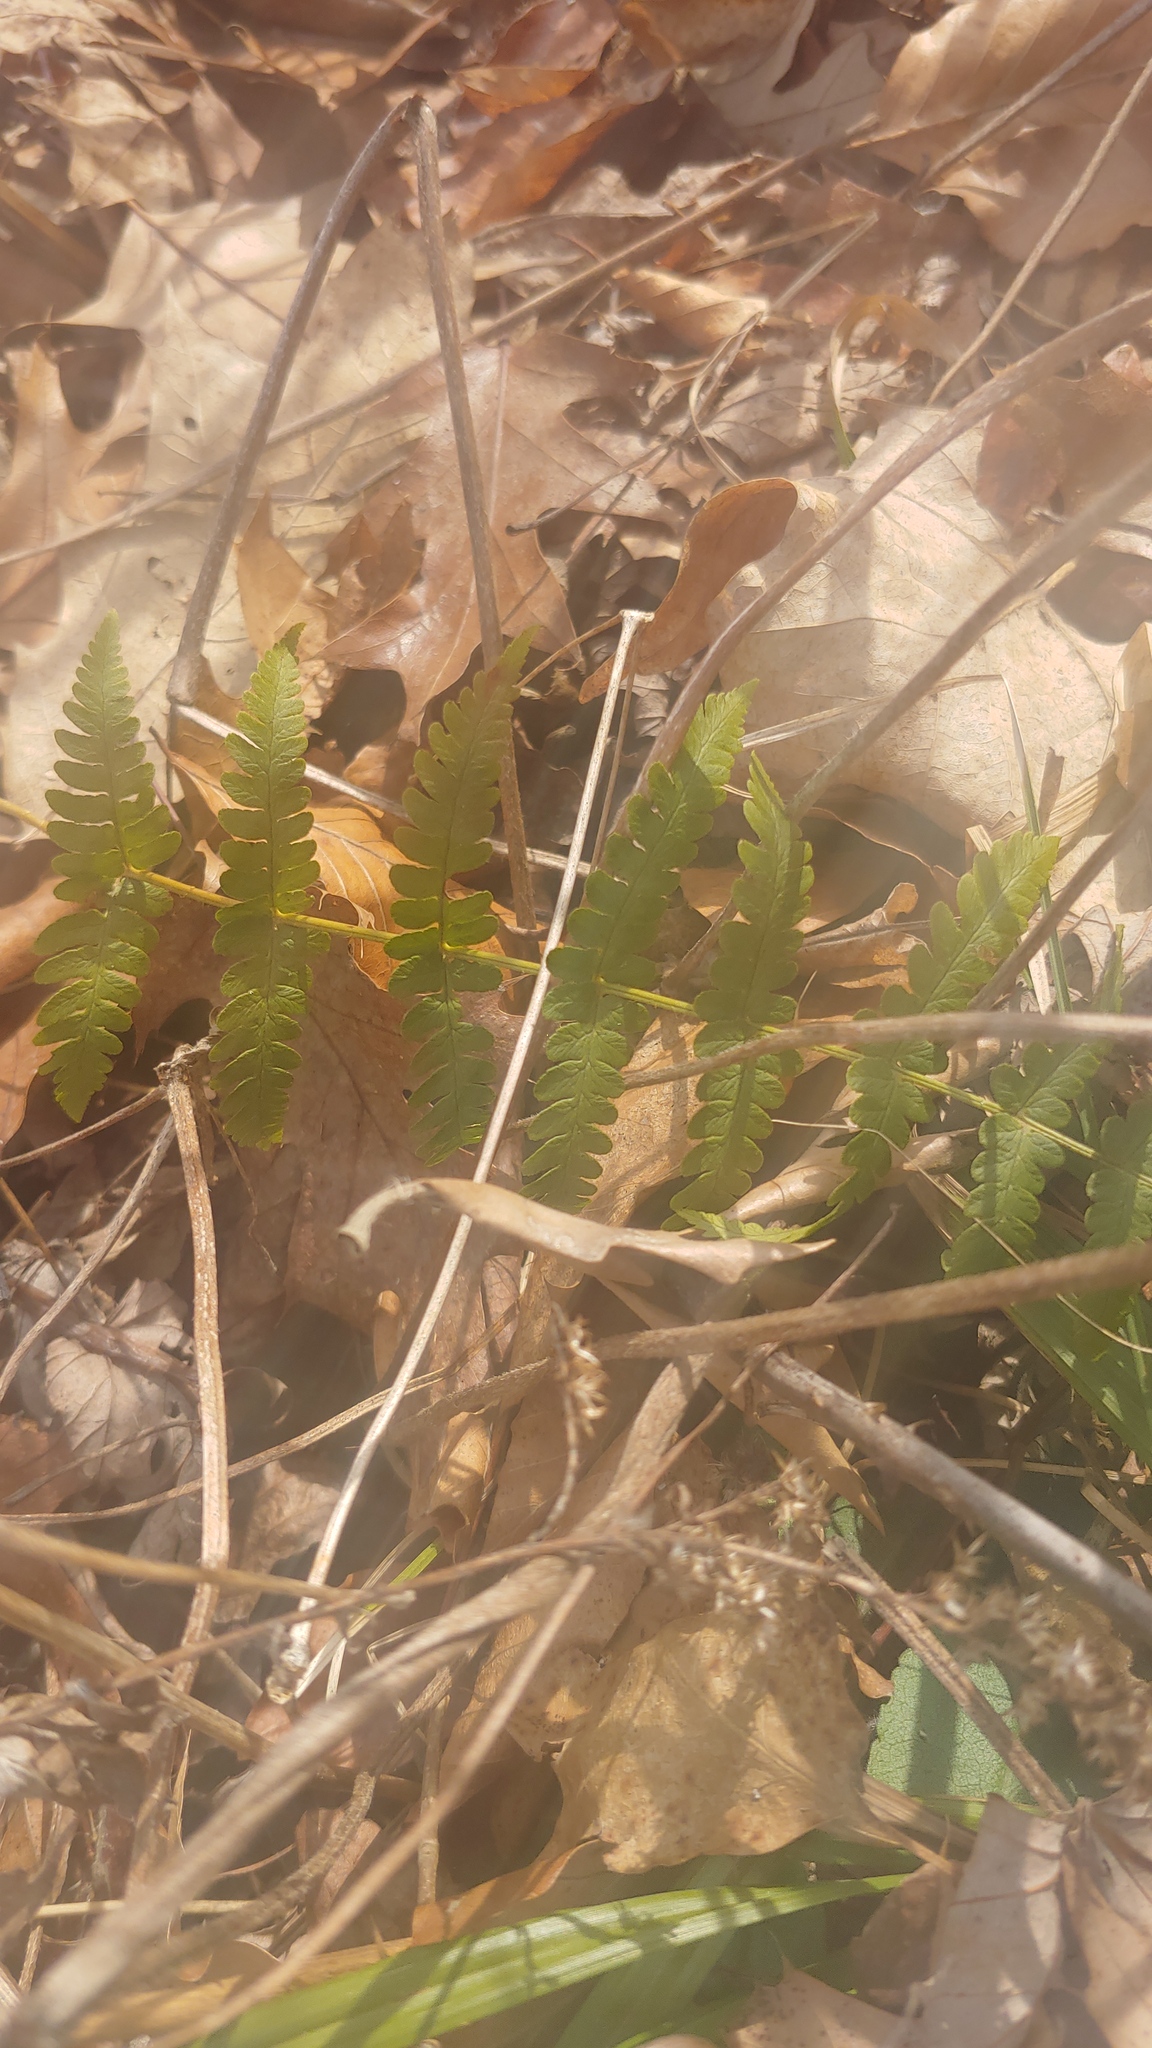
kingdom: Plantae
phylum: Tracheophyta
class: Polypodiopsida
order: Polypodiales
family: Dryopteridaceae
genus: Dryopteris
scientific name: Dryopteris marginalis
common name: Marginal wood fern
